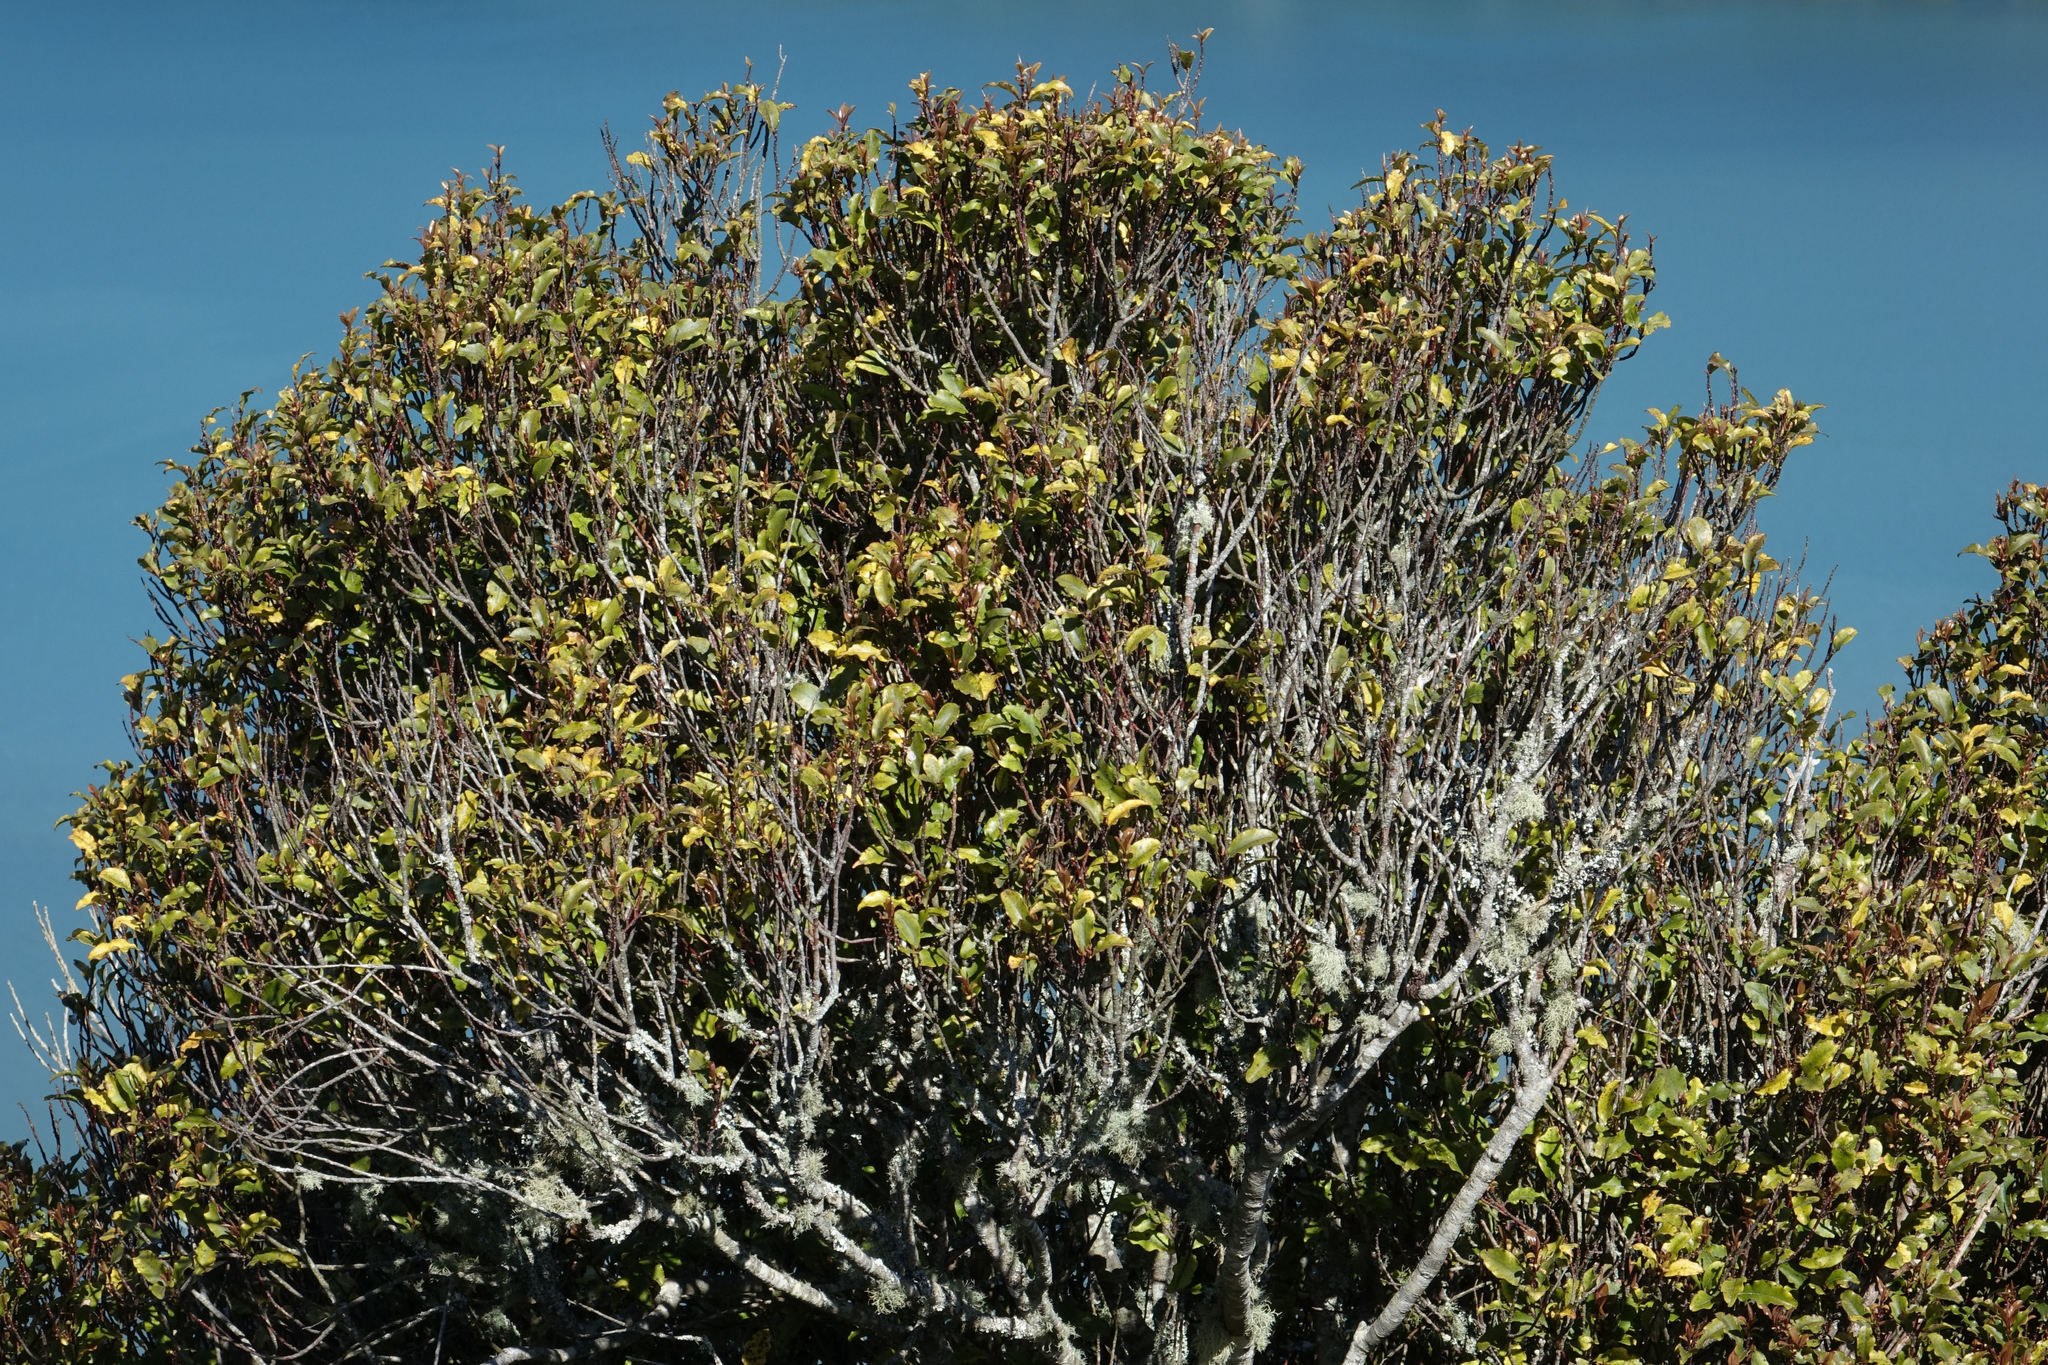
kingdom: Plantae
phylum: Tracheophyta
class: Magnoliopsida
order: Ericales
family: Primulaceae
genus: Myrsine
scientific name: Myrsine australis
